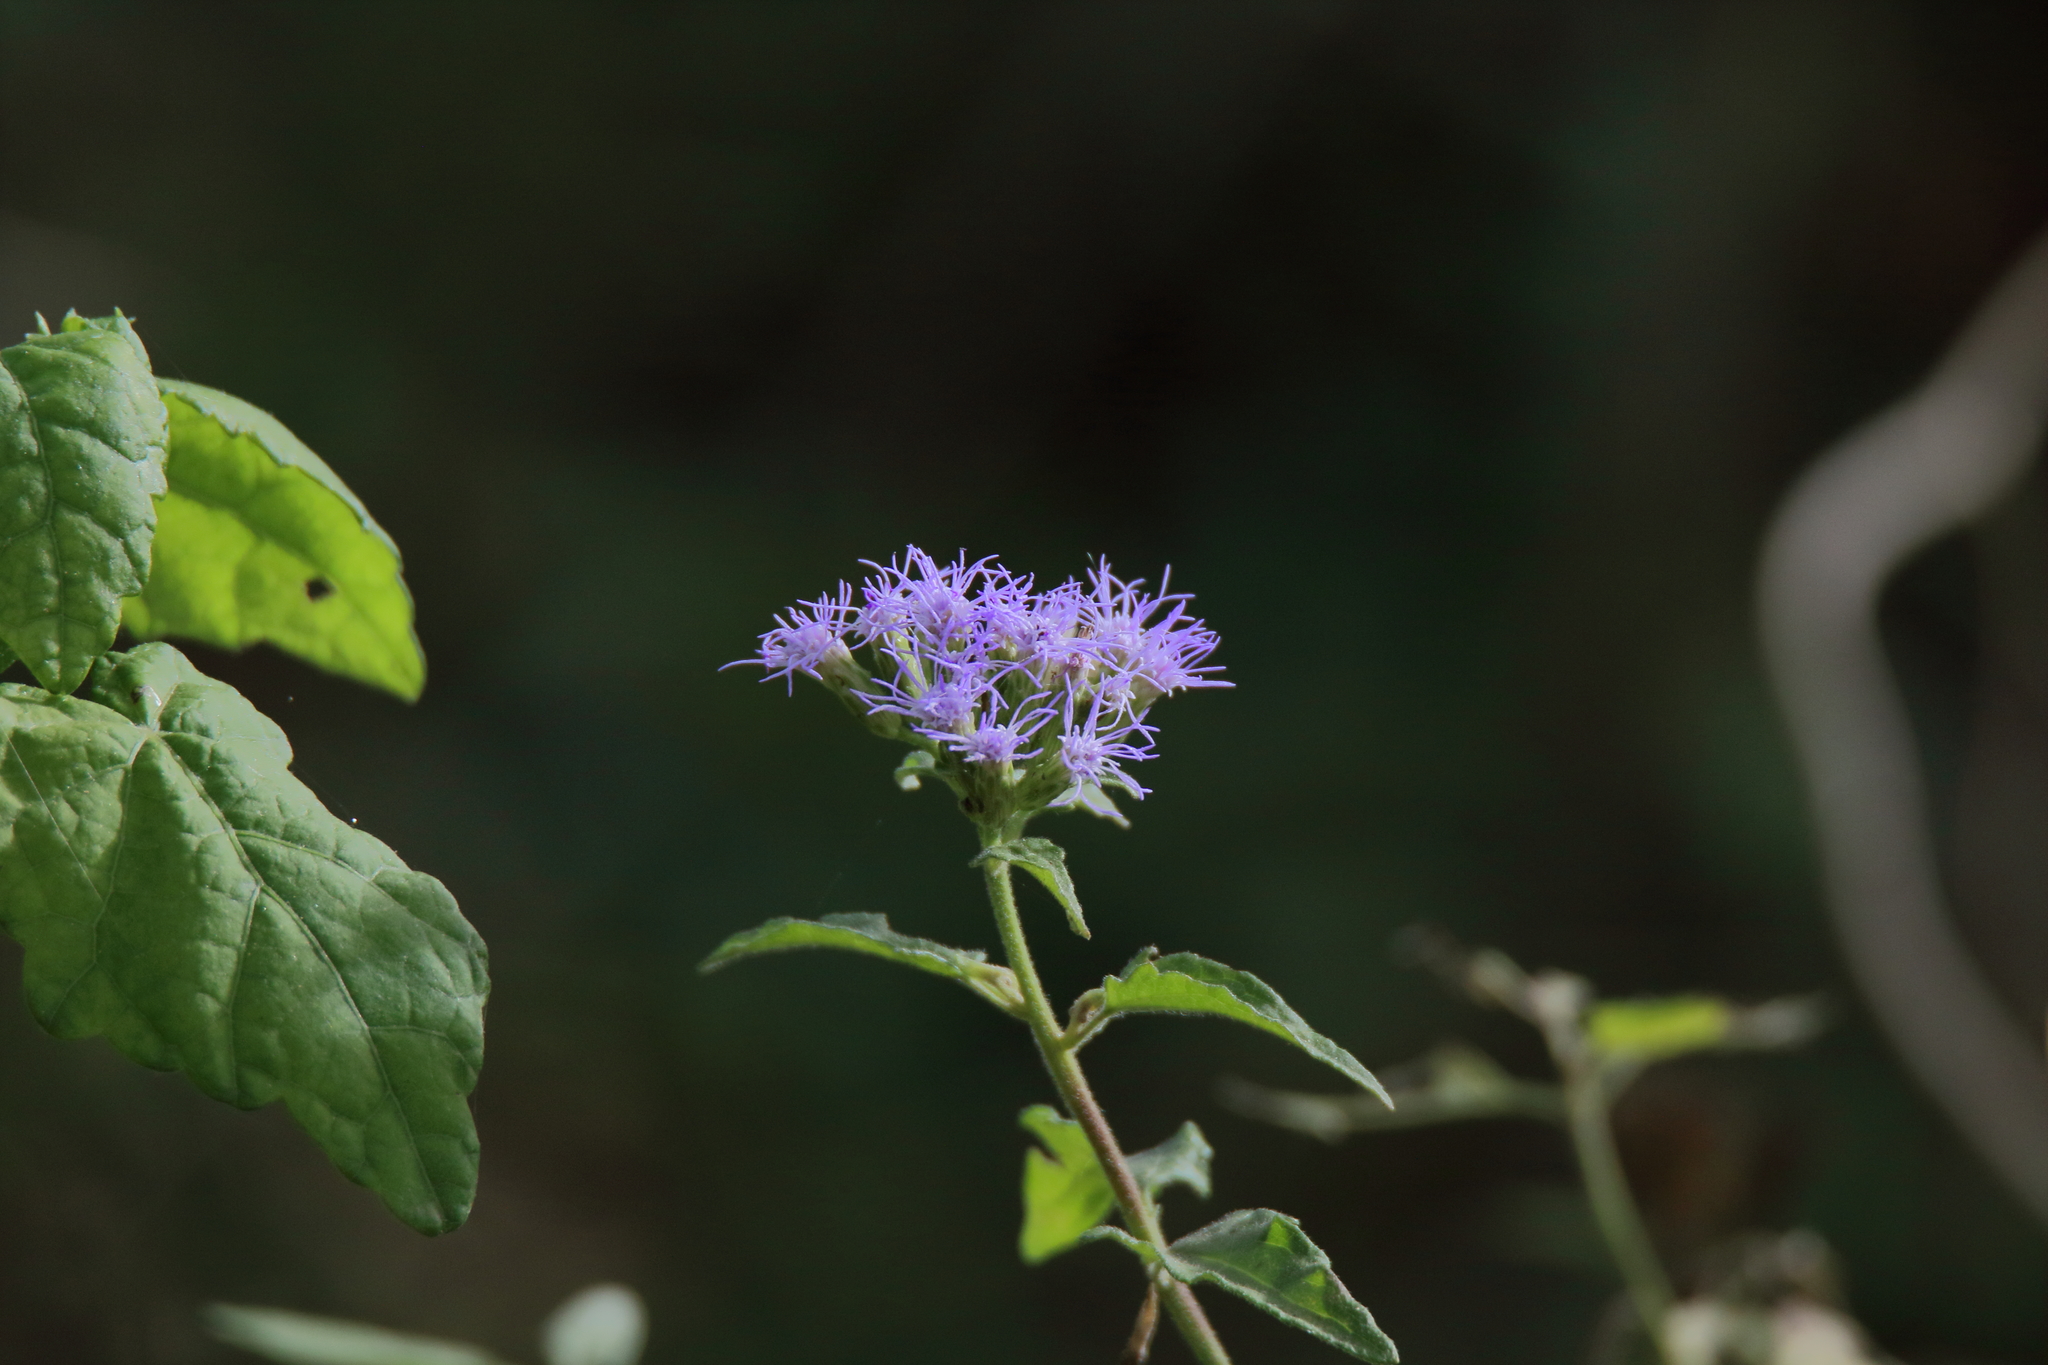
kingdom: Plantae
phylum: Tracheophyta
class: Magnoliopsida
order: Asterales
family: Asteraceae
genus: Chromolaena
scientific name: Chromolaena odorata
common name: Siamweed
